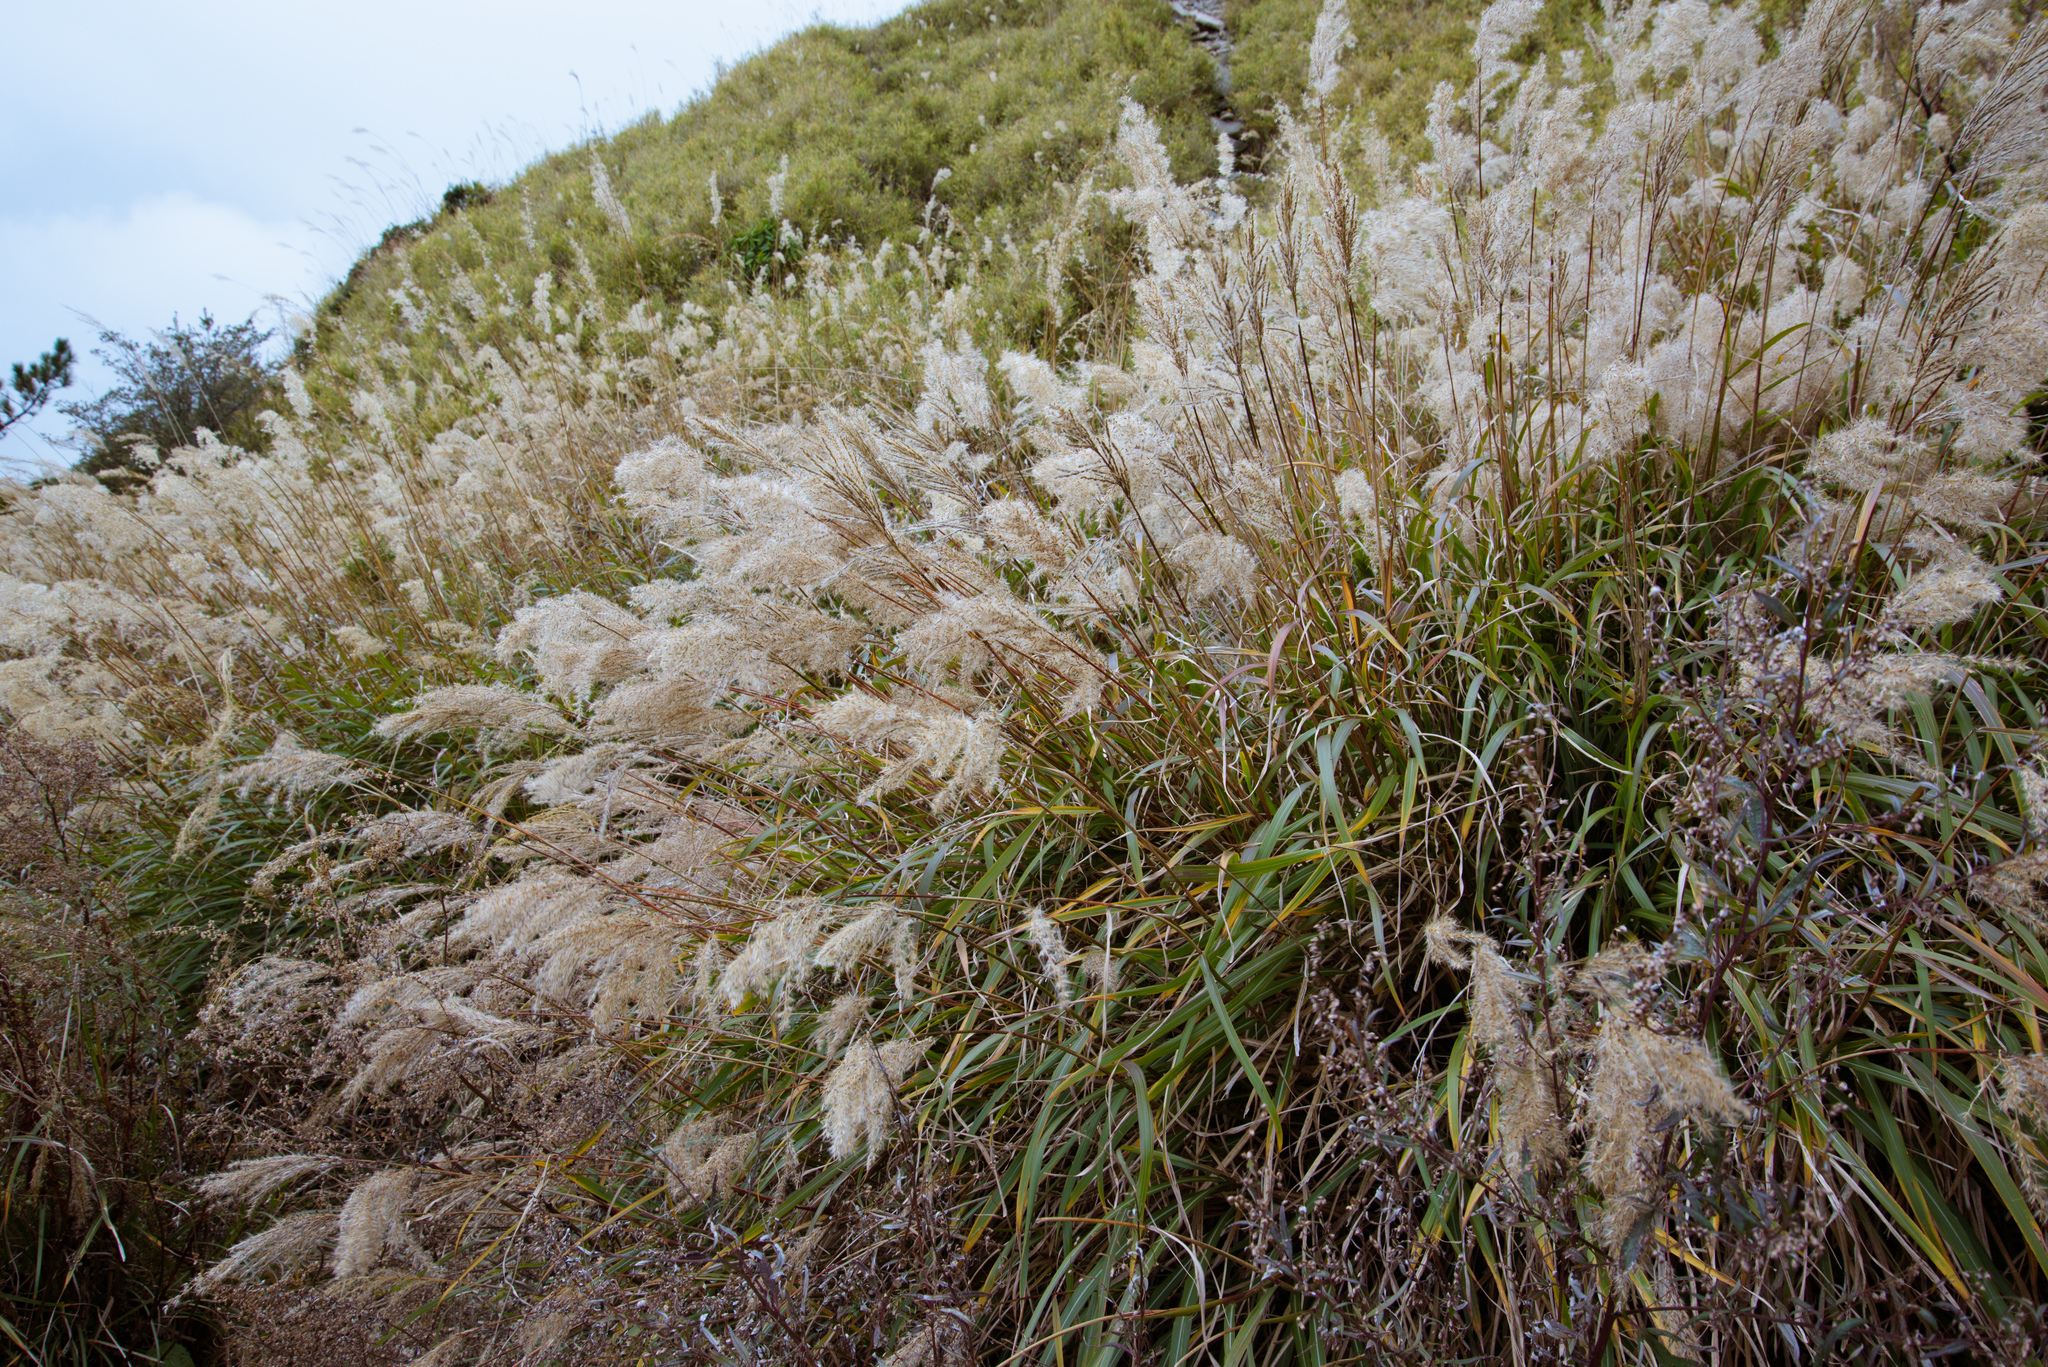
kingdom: Plantae
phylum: Tracheophyta
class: Liliopsida
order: Poales
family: Poaceae
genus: Miscanthus
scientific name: Miscanthus sinensis
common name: Chinese silvergrass
